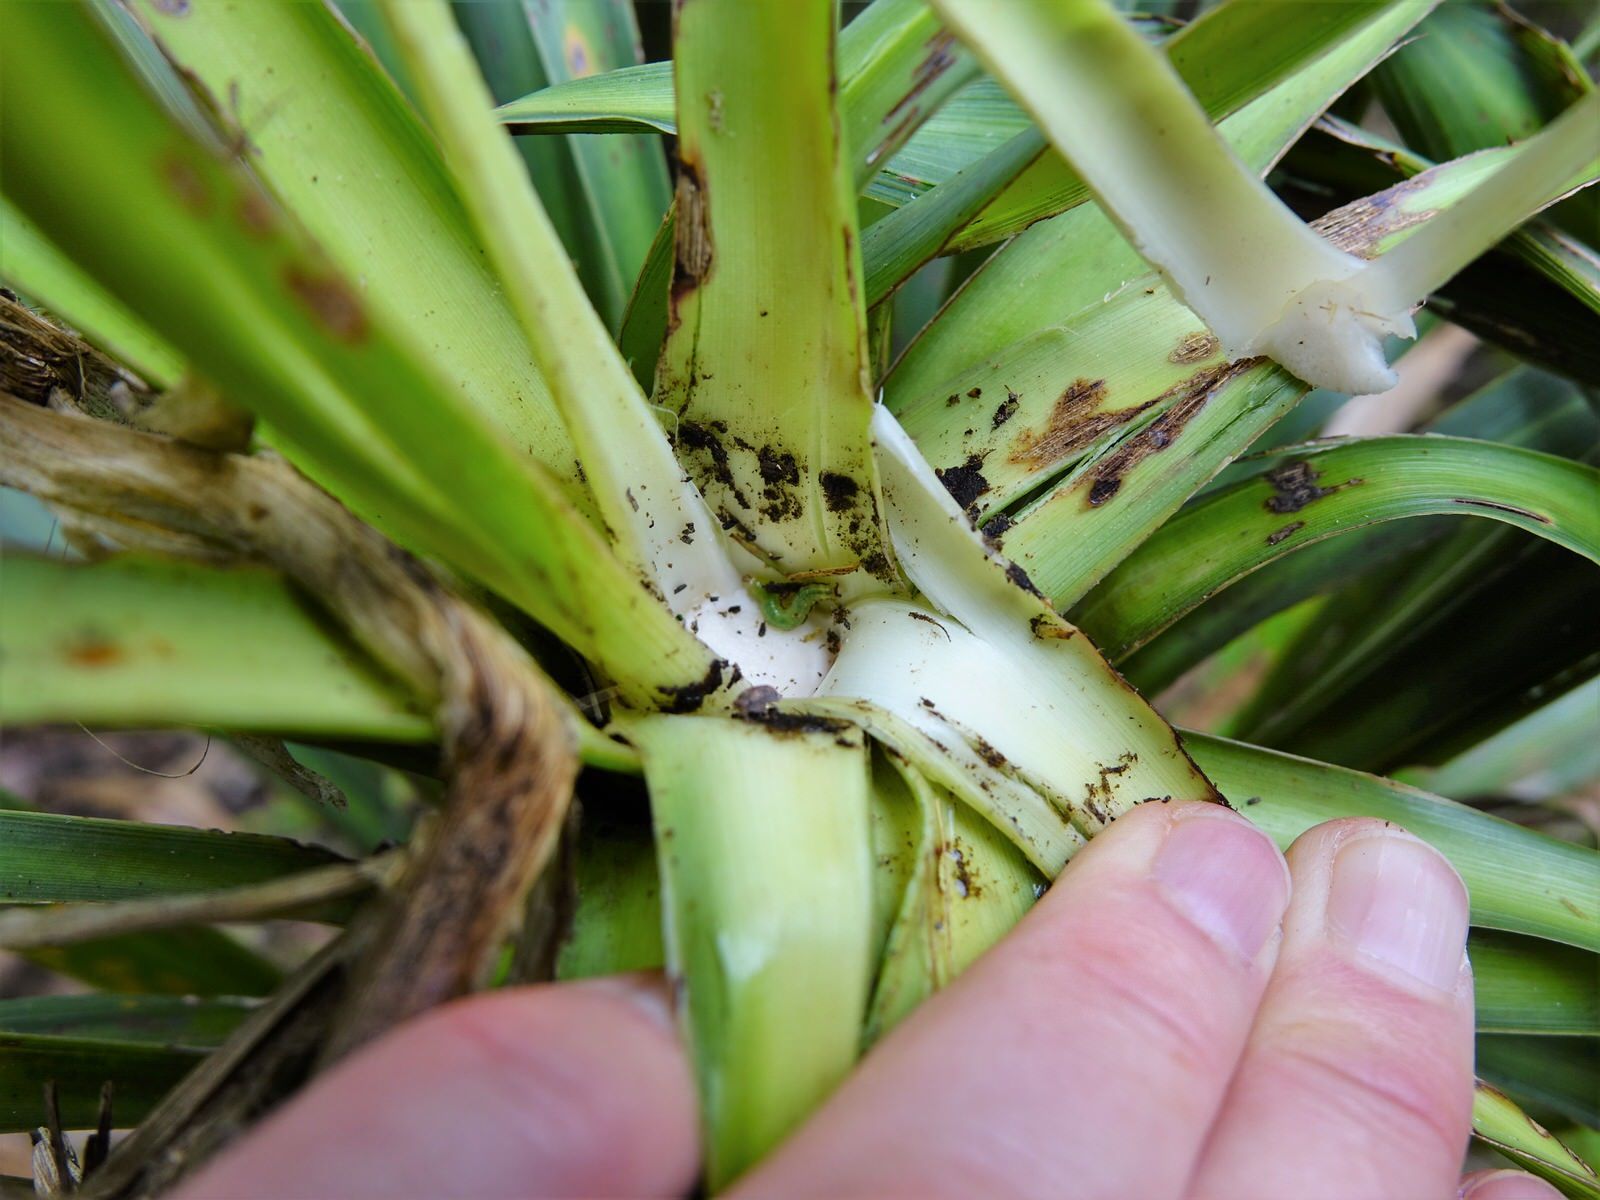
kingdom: Plantae
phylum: Tracheophyta
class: Liliopsida
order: Asparagales
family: Asparagaceae
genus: Cordyline
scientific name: Cordyline banksii
